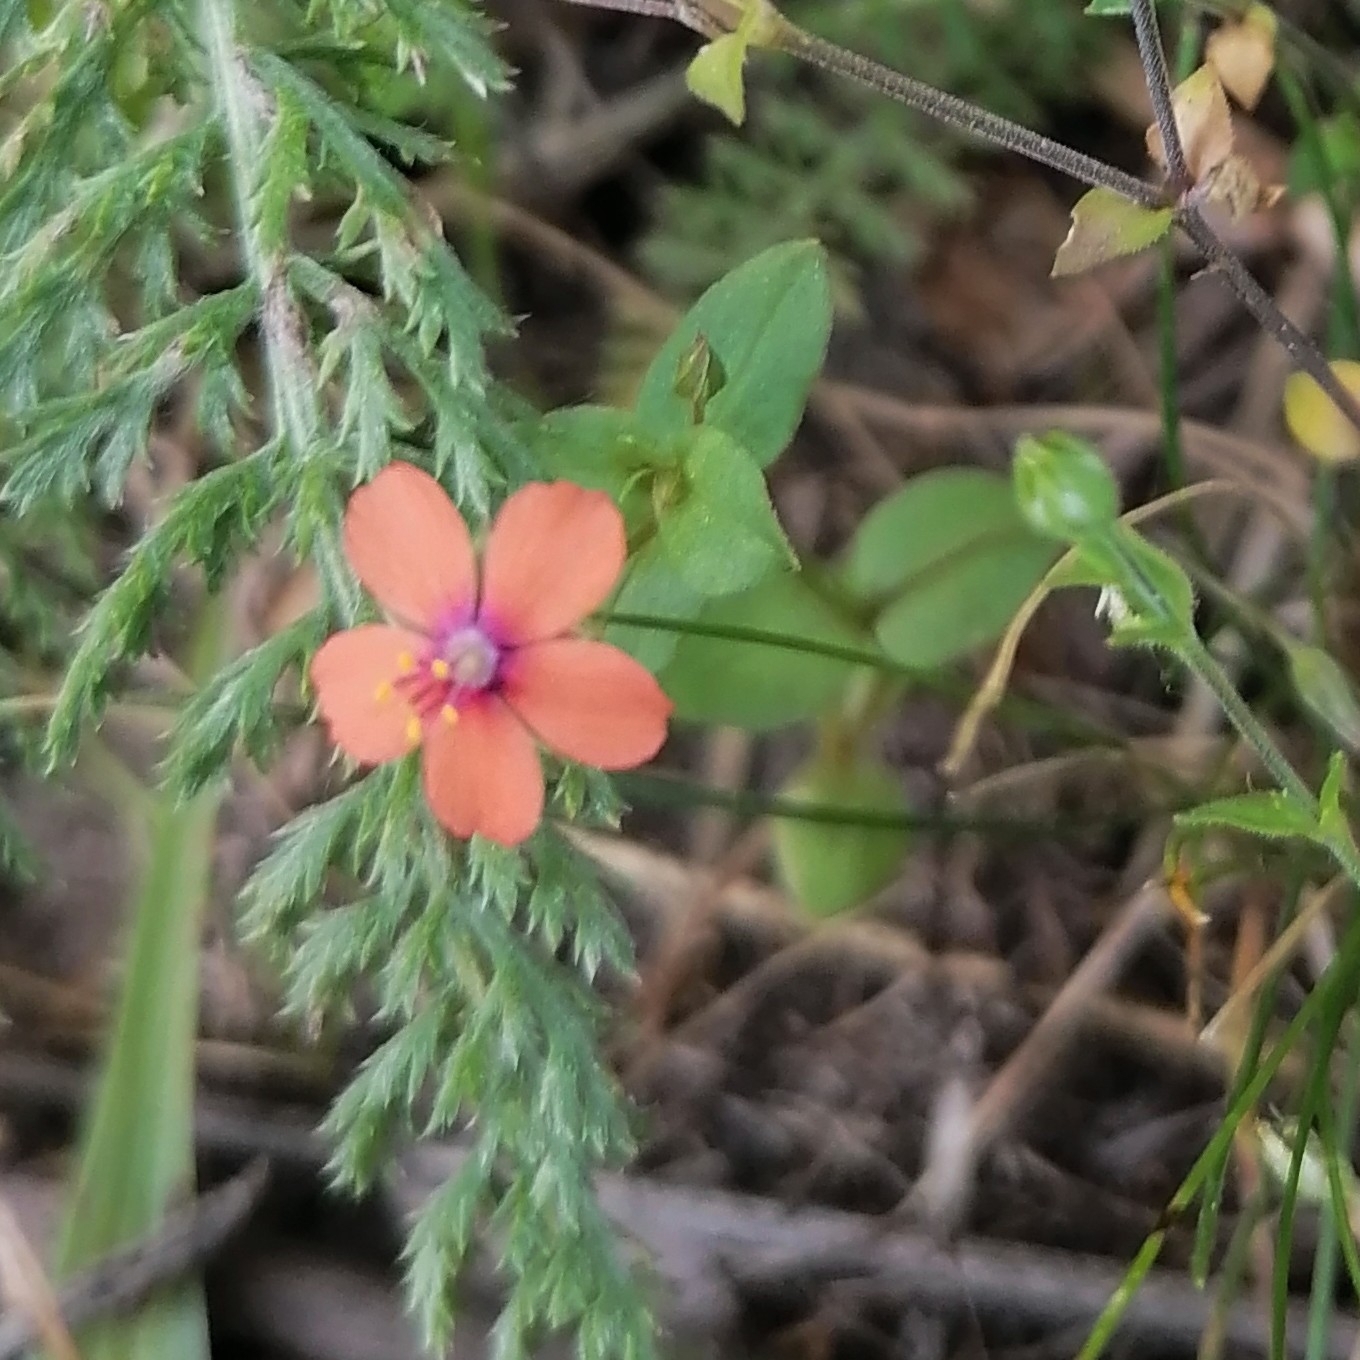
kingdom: Plantae
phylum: Tracheophyta
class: Magnoliopsida
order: Ericales
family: Primulaceae
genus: Lysimachia
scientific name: Lysimachia arvensis
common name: Scarlet pimpernel
